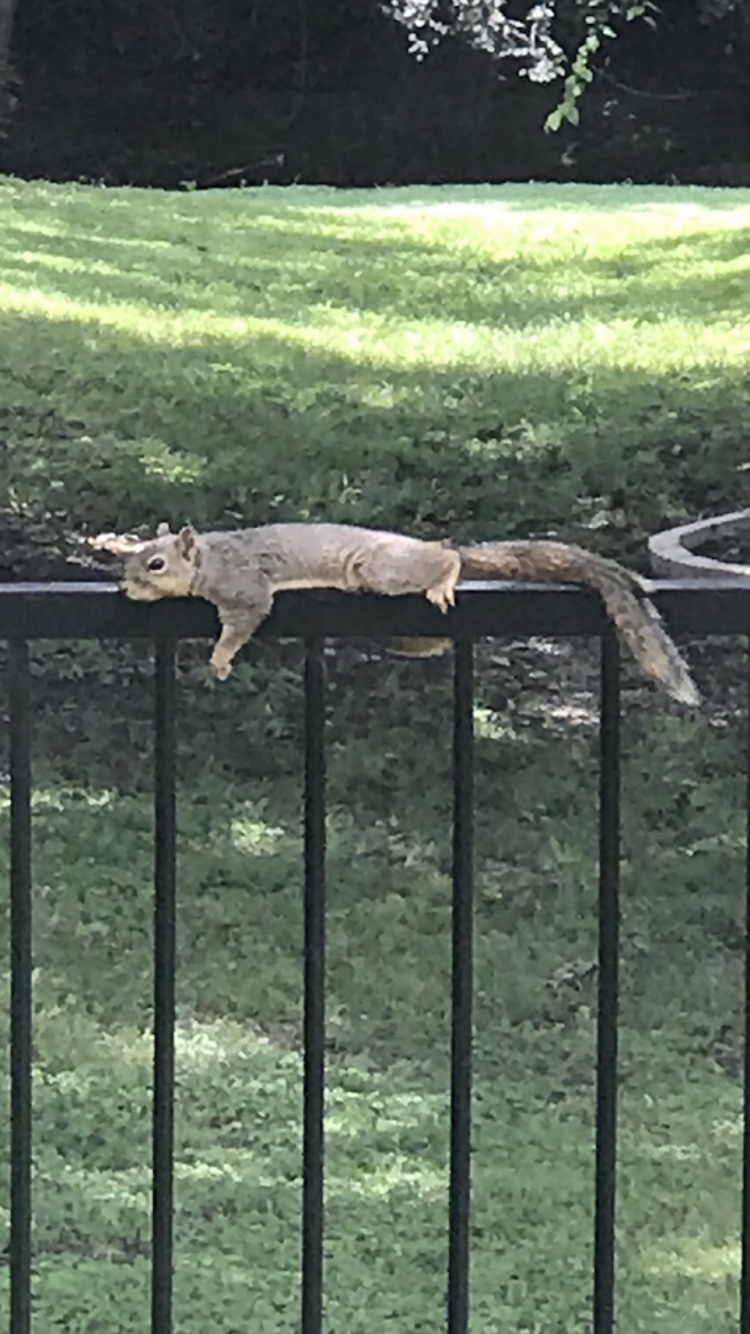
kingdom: Animalia
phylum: Chordata
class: Mammalia
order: Rodentia
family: Sciuridae
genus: Sciurus
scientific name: Sciurus niger
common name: Fox squirrel
